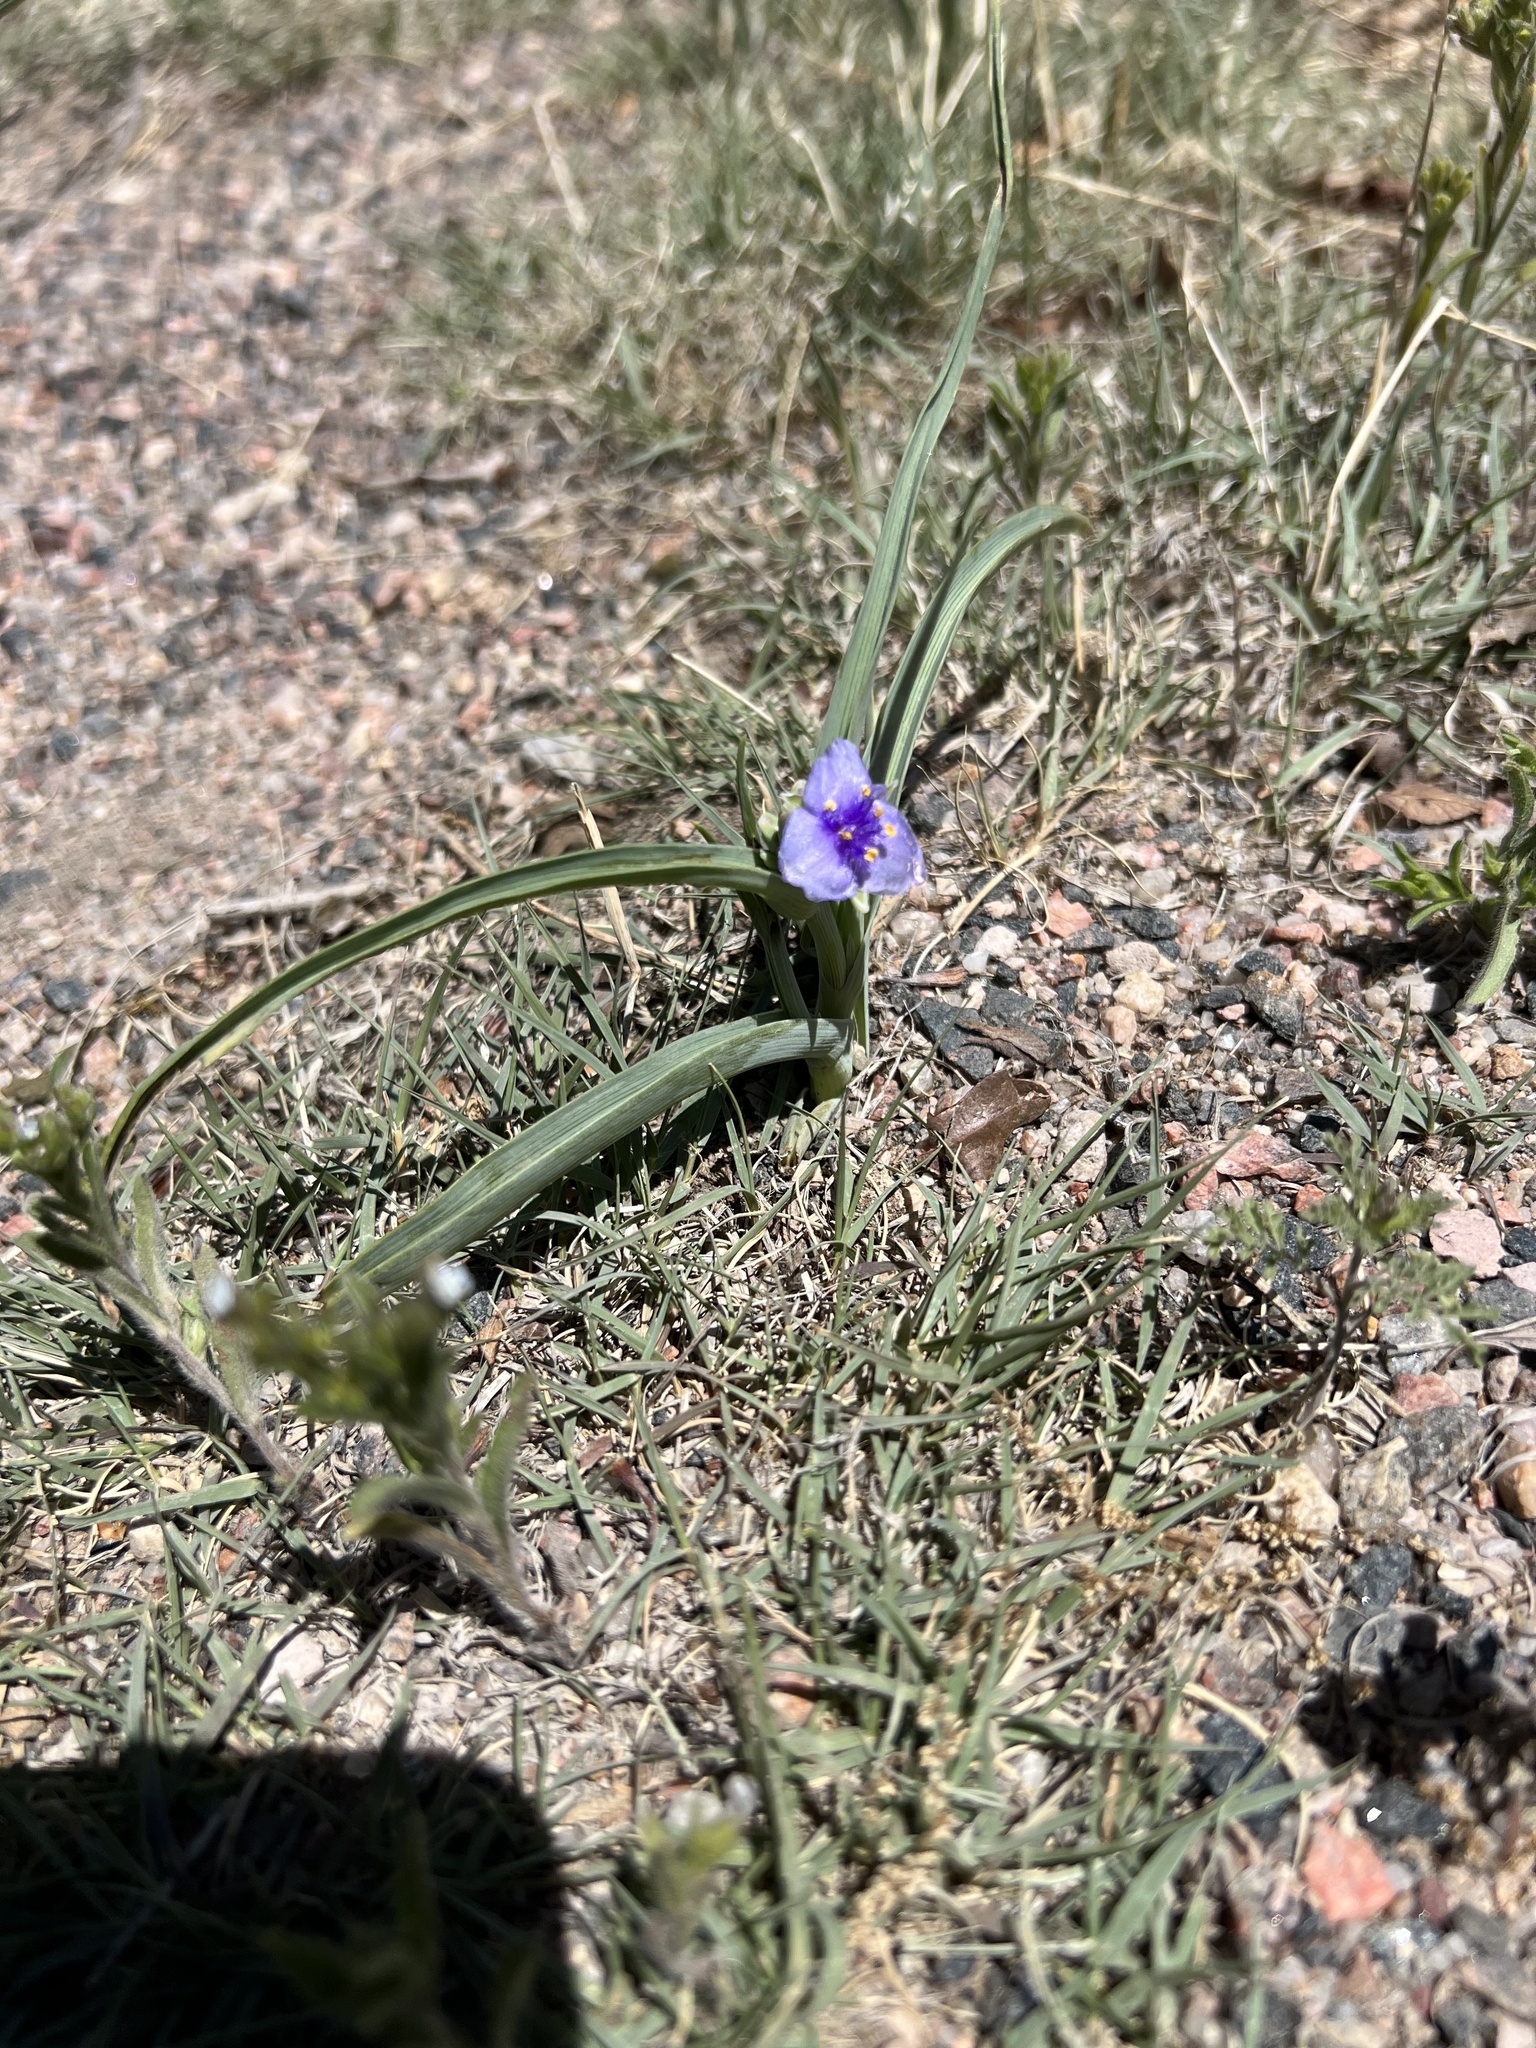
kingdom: Plantae
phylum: Tracheophyta
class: Liliopsida
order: Commelinales
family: Commelinaceae
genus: Tradescantia
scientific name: Tradescantia occidentalis
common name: Prairie spiderwort
